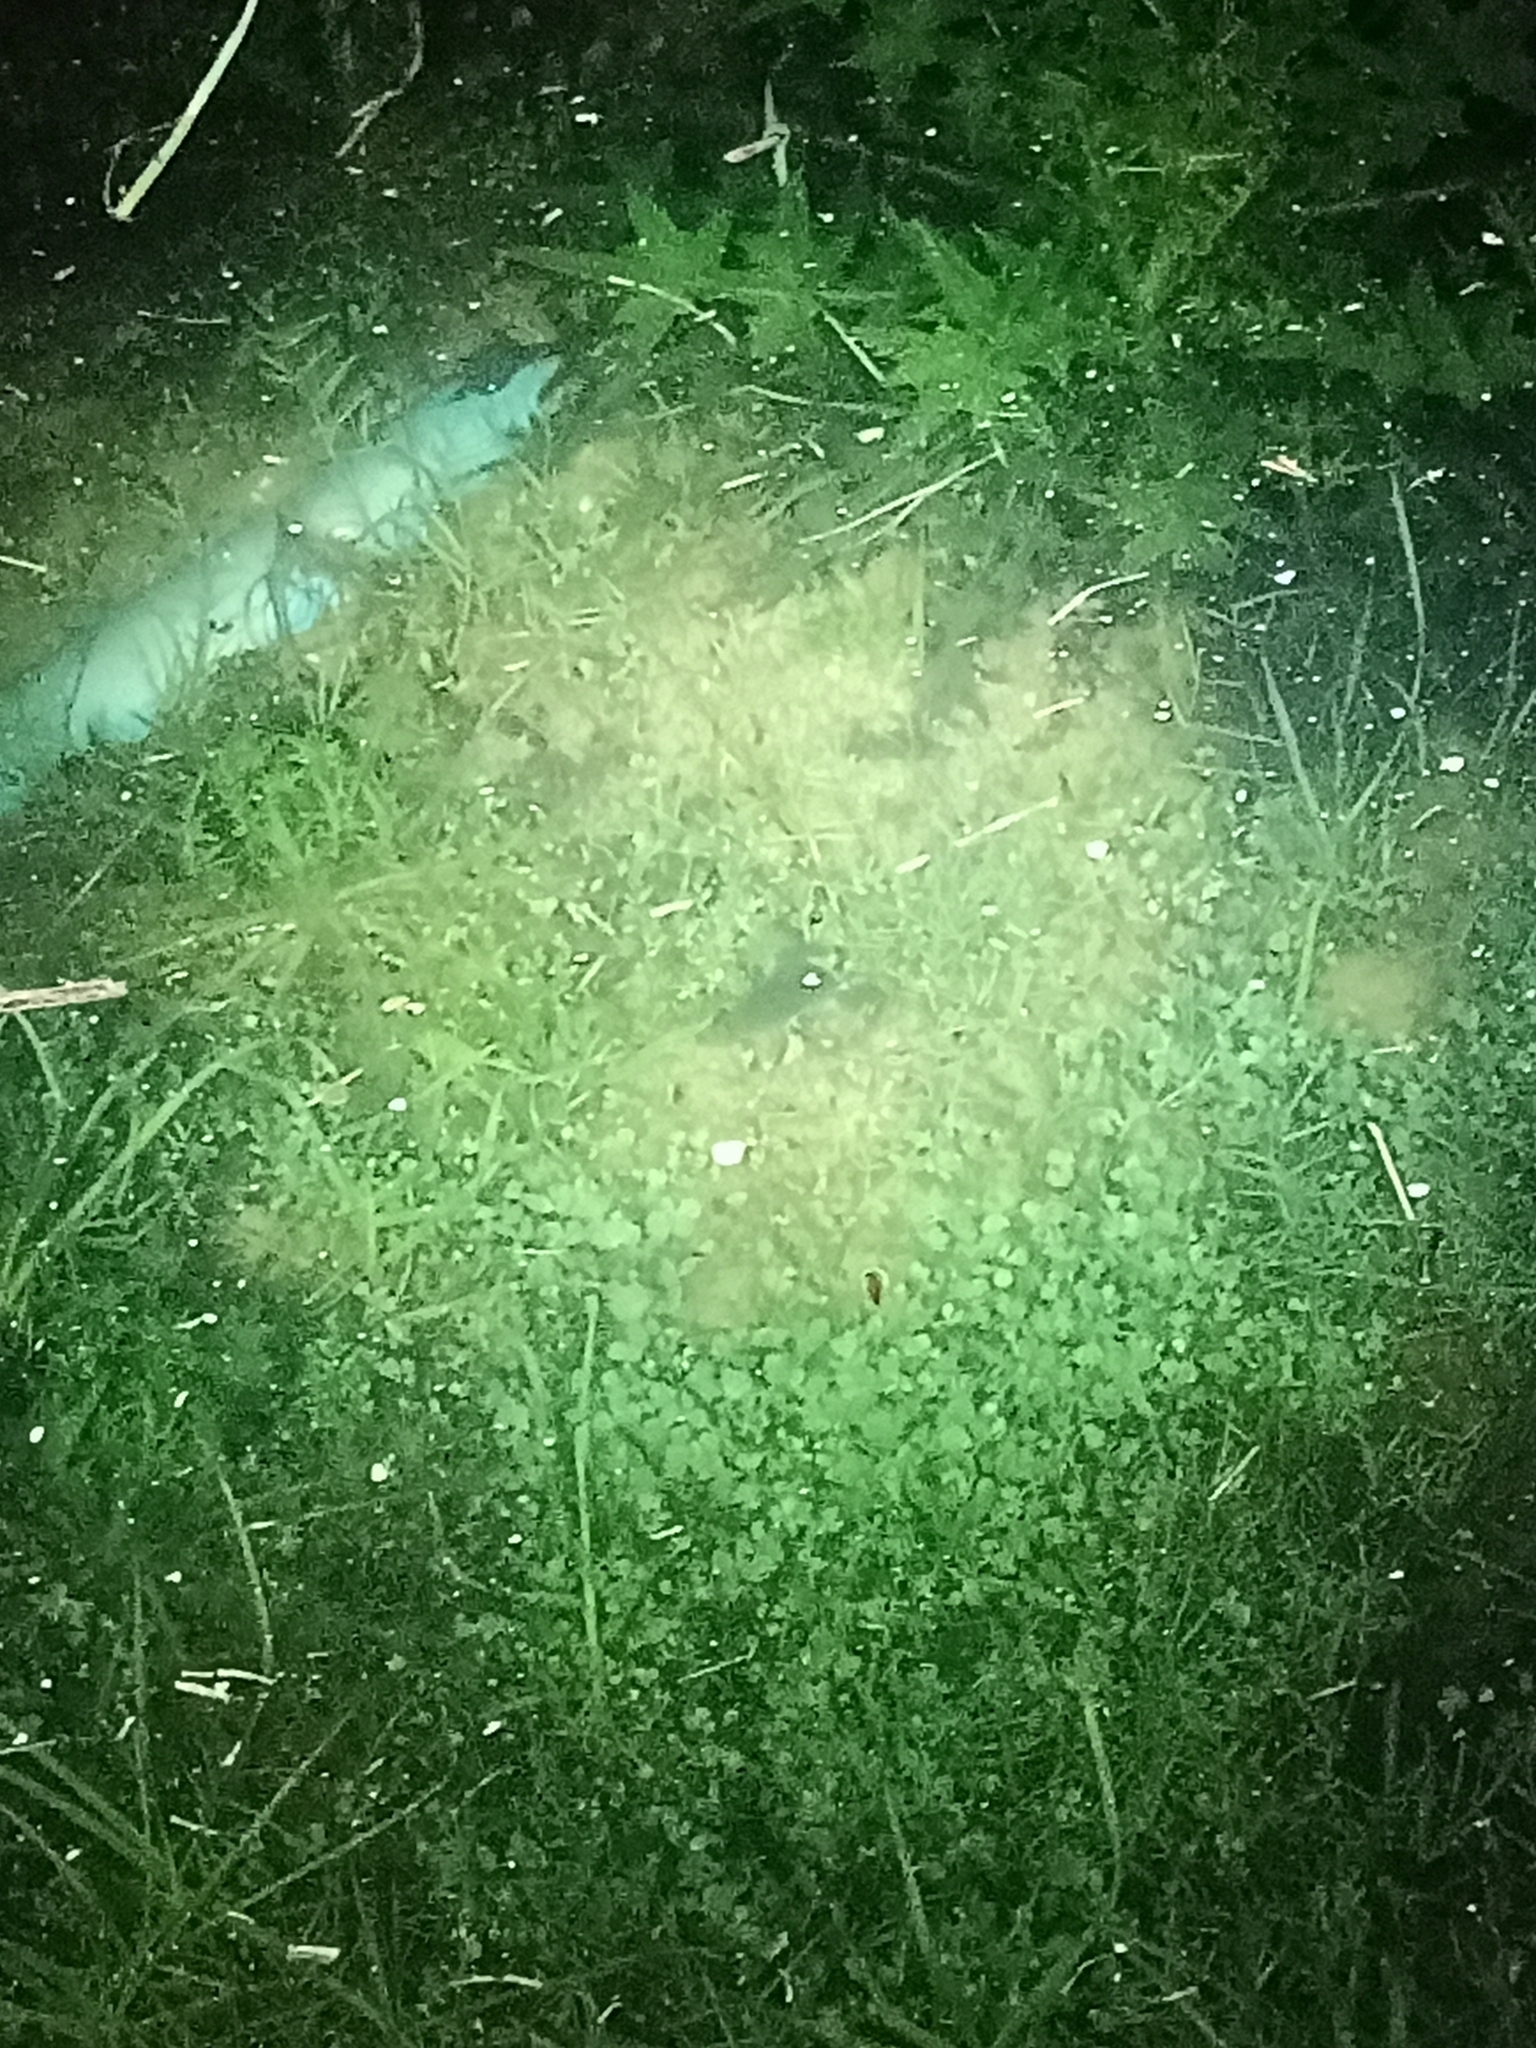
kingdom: Animalia
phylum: Chordata
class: Amphibia
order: Anura
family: Pipidae
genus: Xenopus
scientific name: Xenopus laevis
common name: African clawed frog
